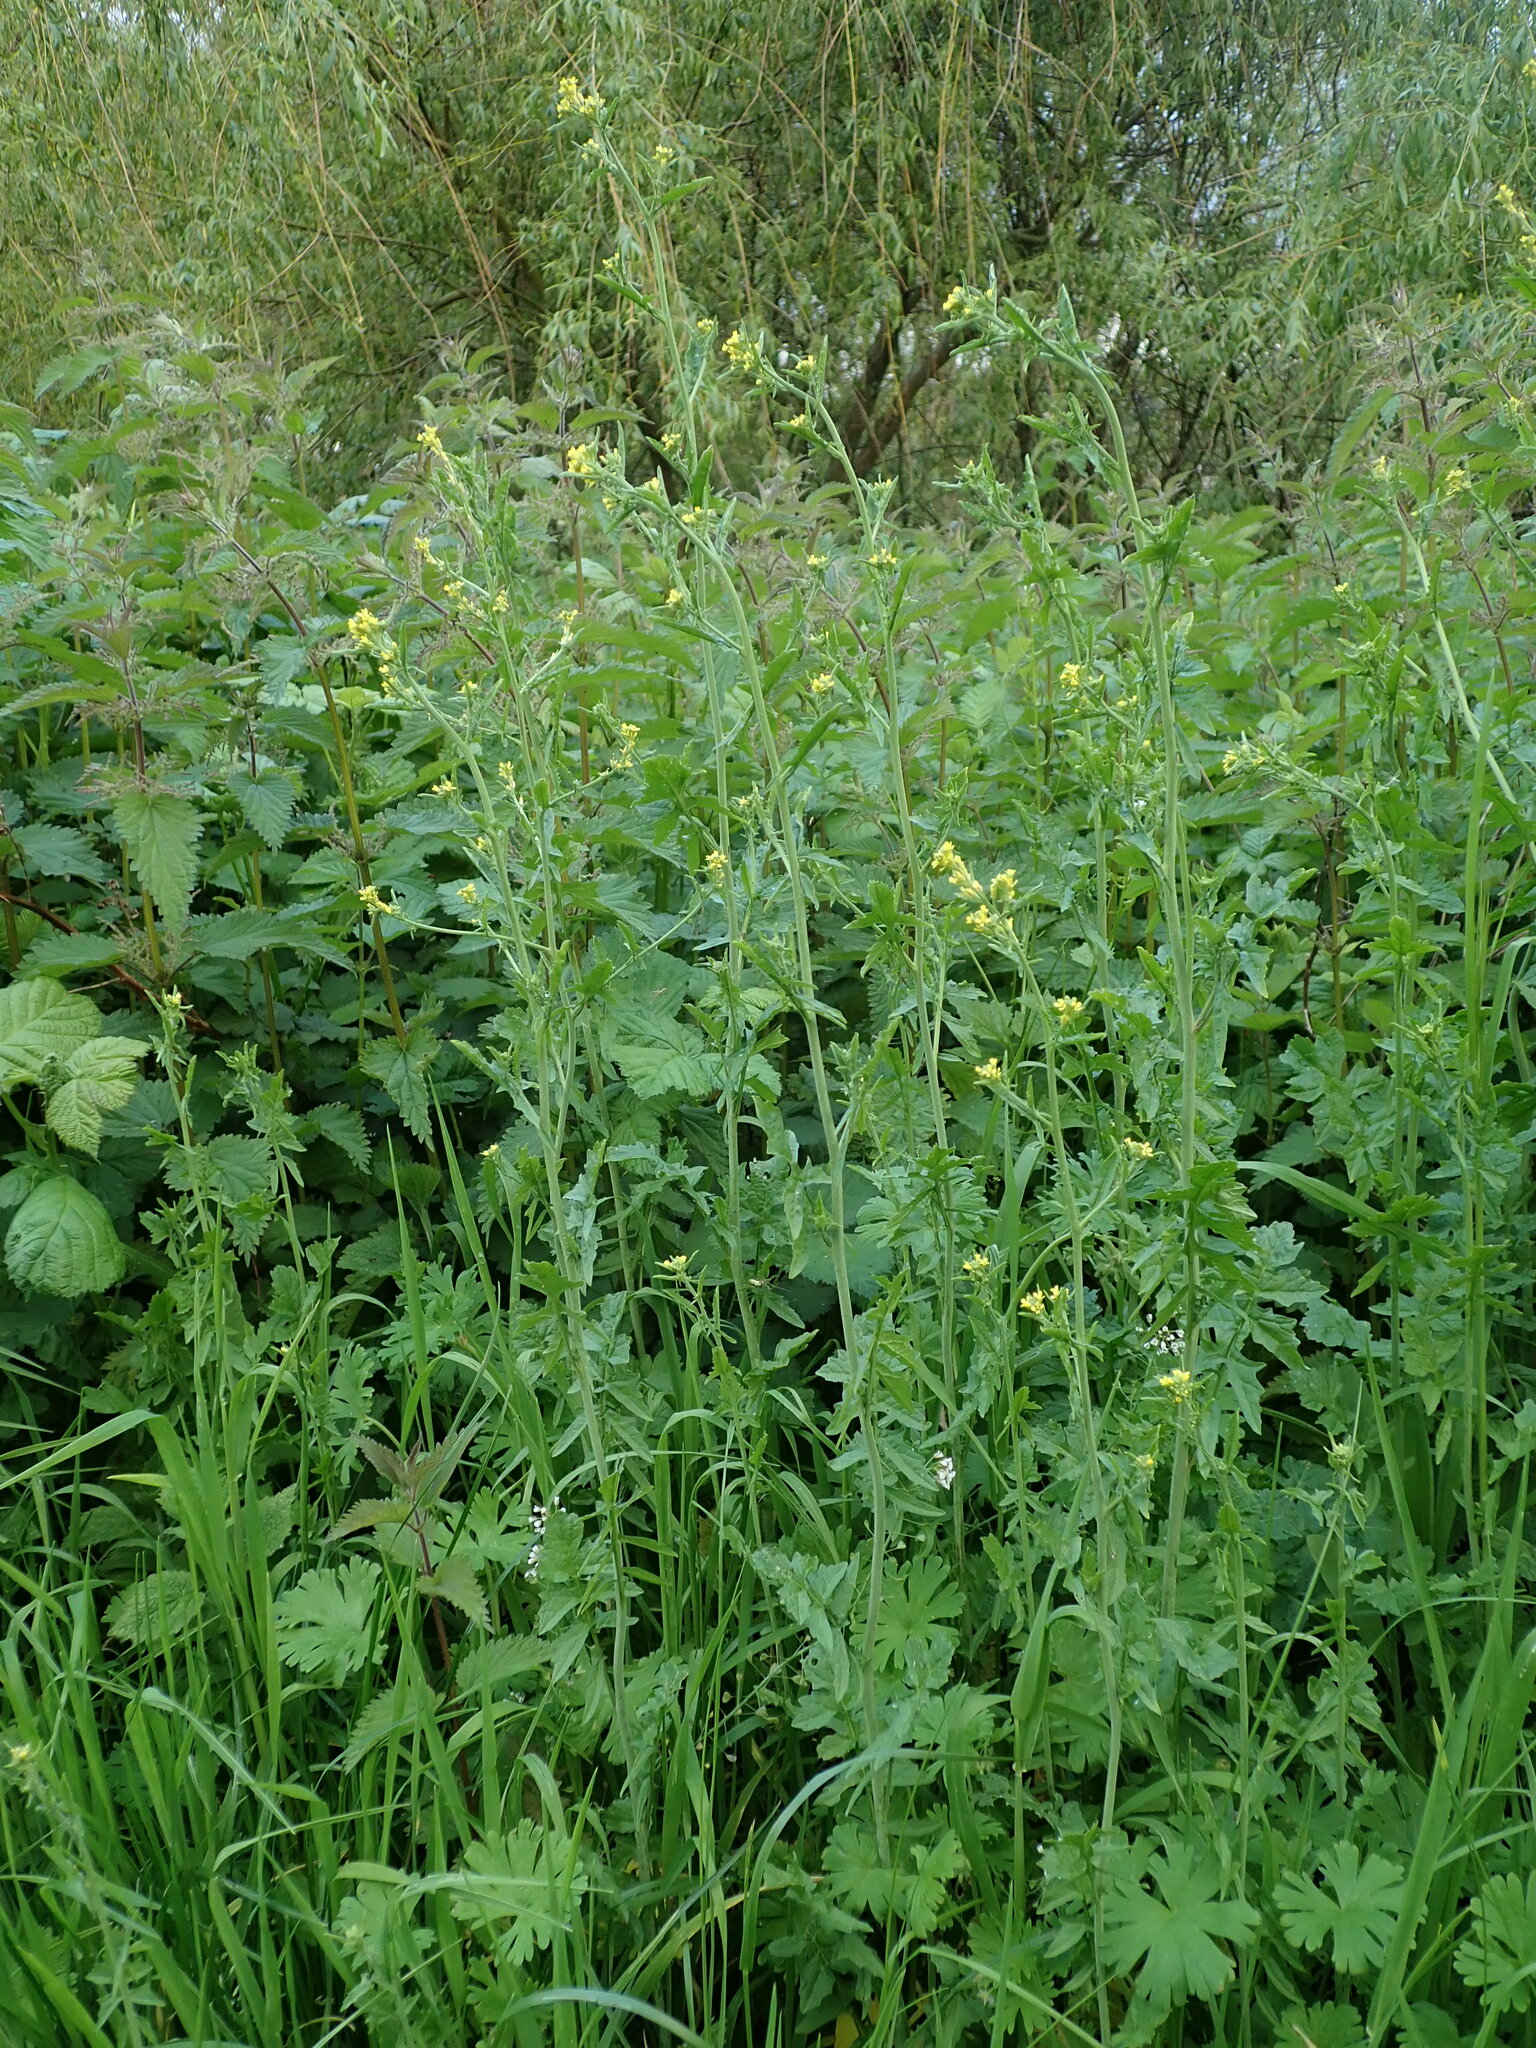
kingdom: Plantae
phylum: Tracheophyta
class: Magnoliopsida
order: Brassicales
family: Brassicaceae
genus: Sisymbrium
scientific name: Sisymbrium officinale
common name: Hedge mustard
